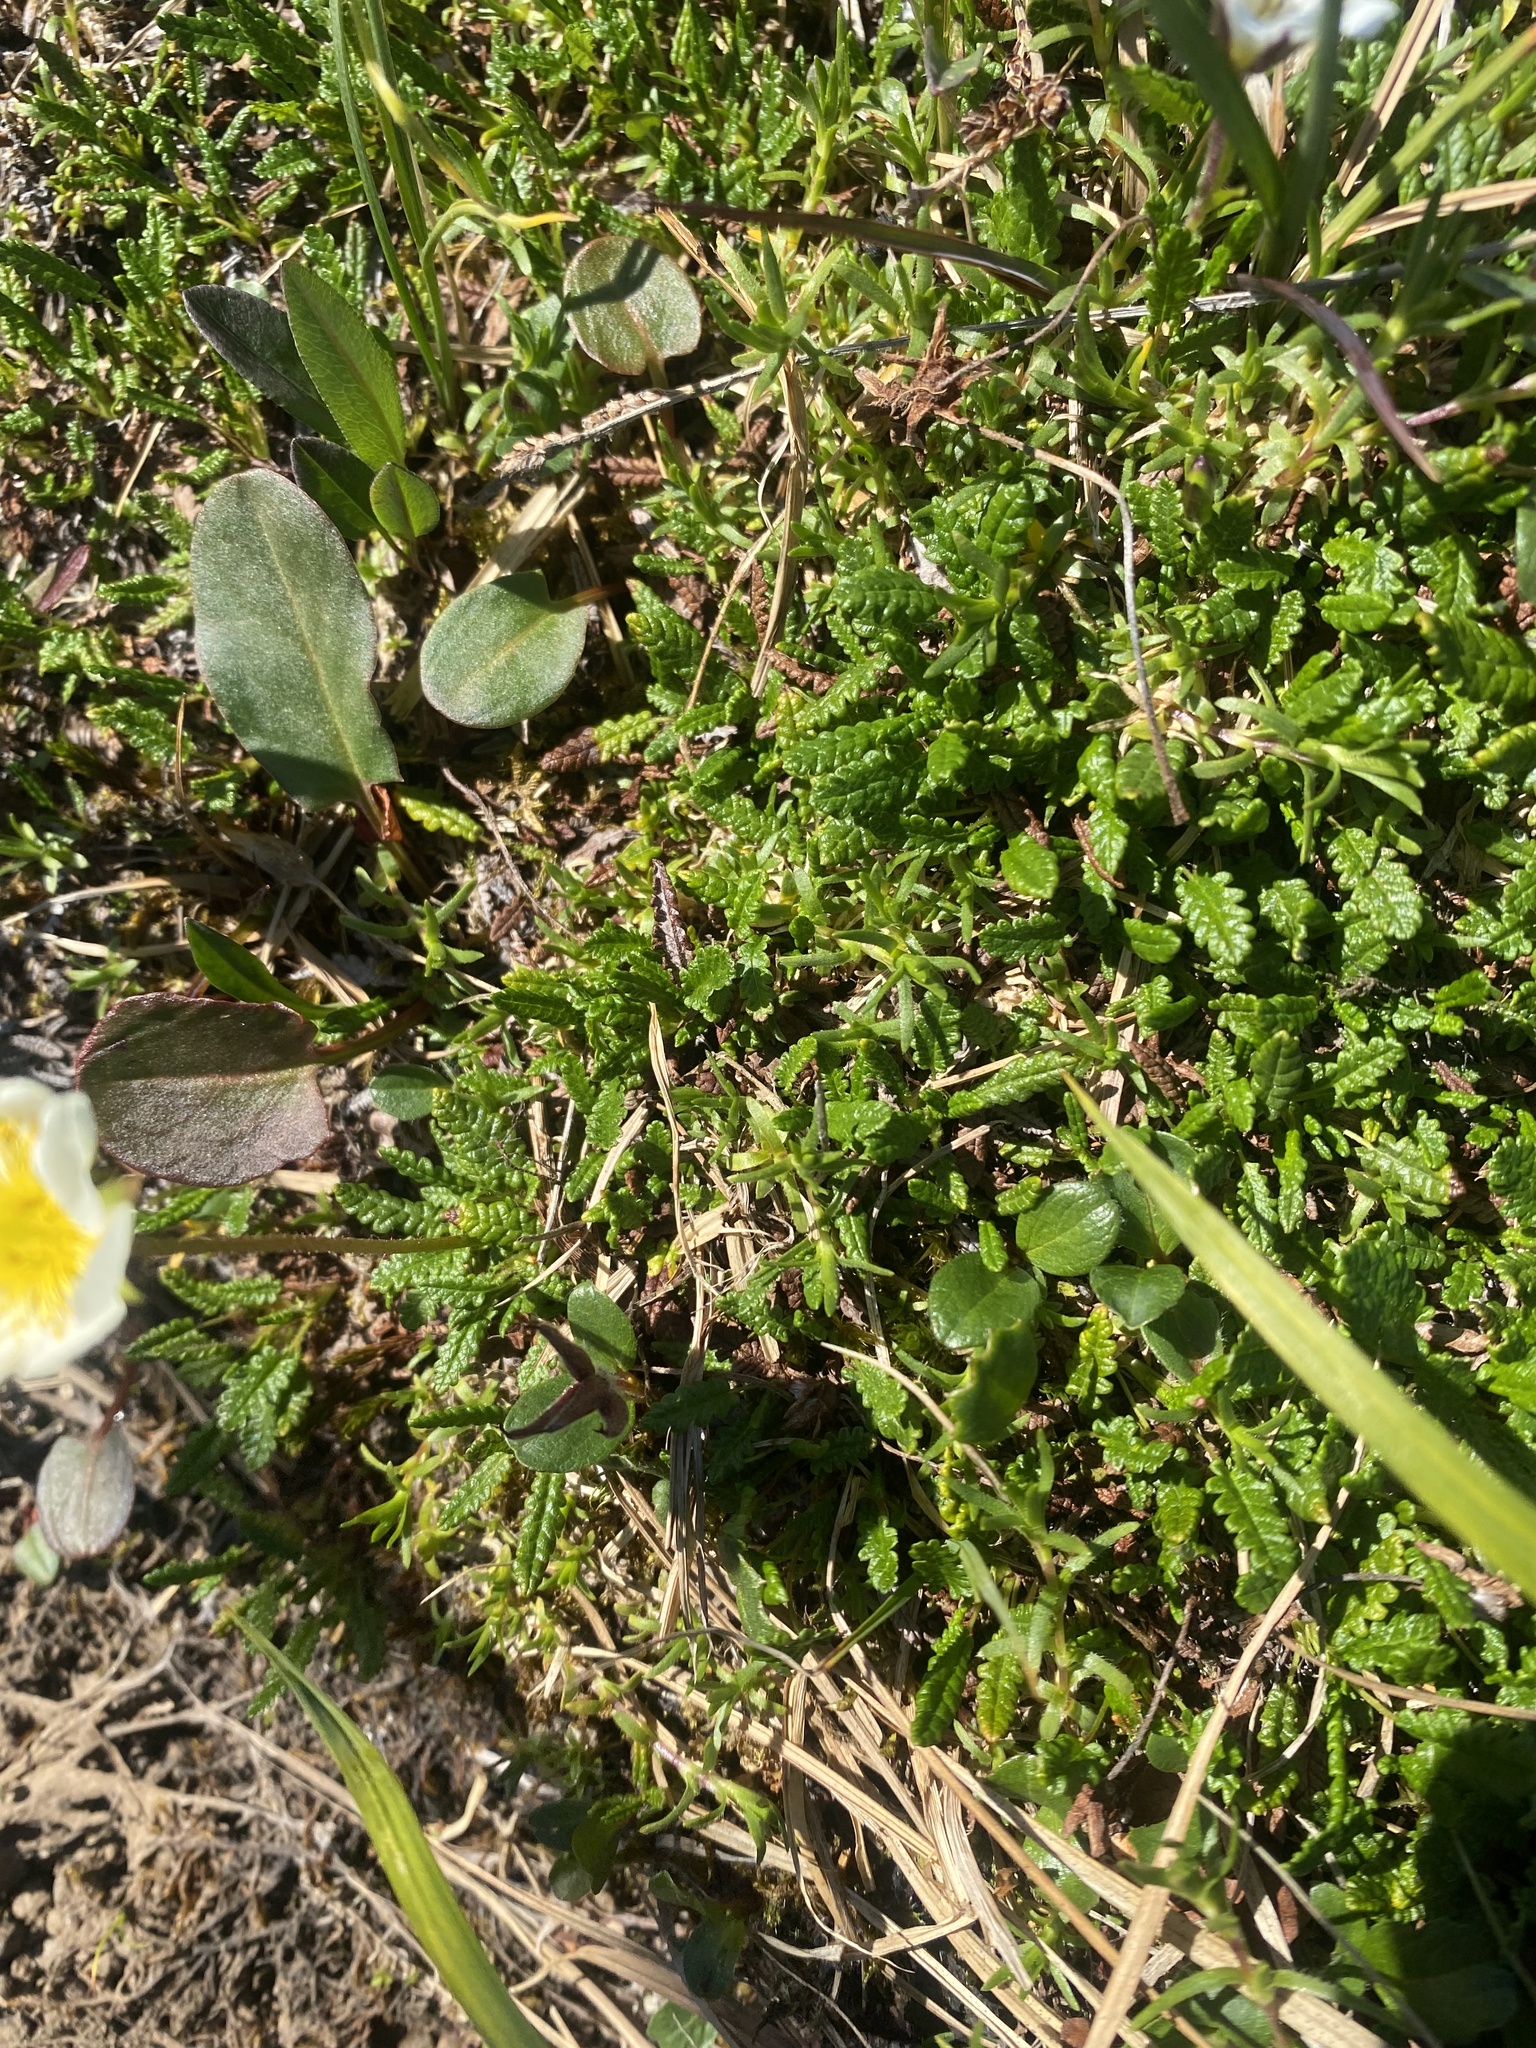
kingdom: Plantae
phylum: Tracheophyta
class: Magnoliopsida
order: Rosales
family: Rosaceae
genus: Dryas
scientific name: Dryas octopetala
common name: Eight-petal mountain-avens
